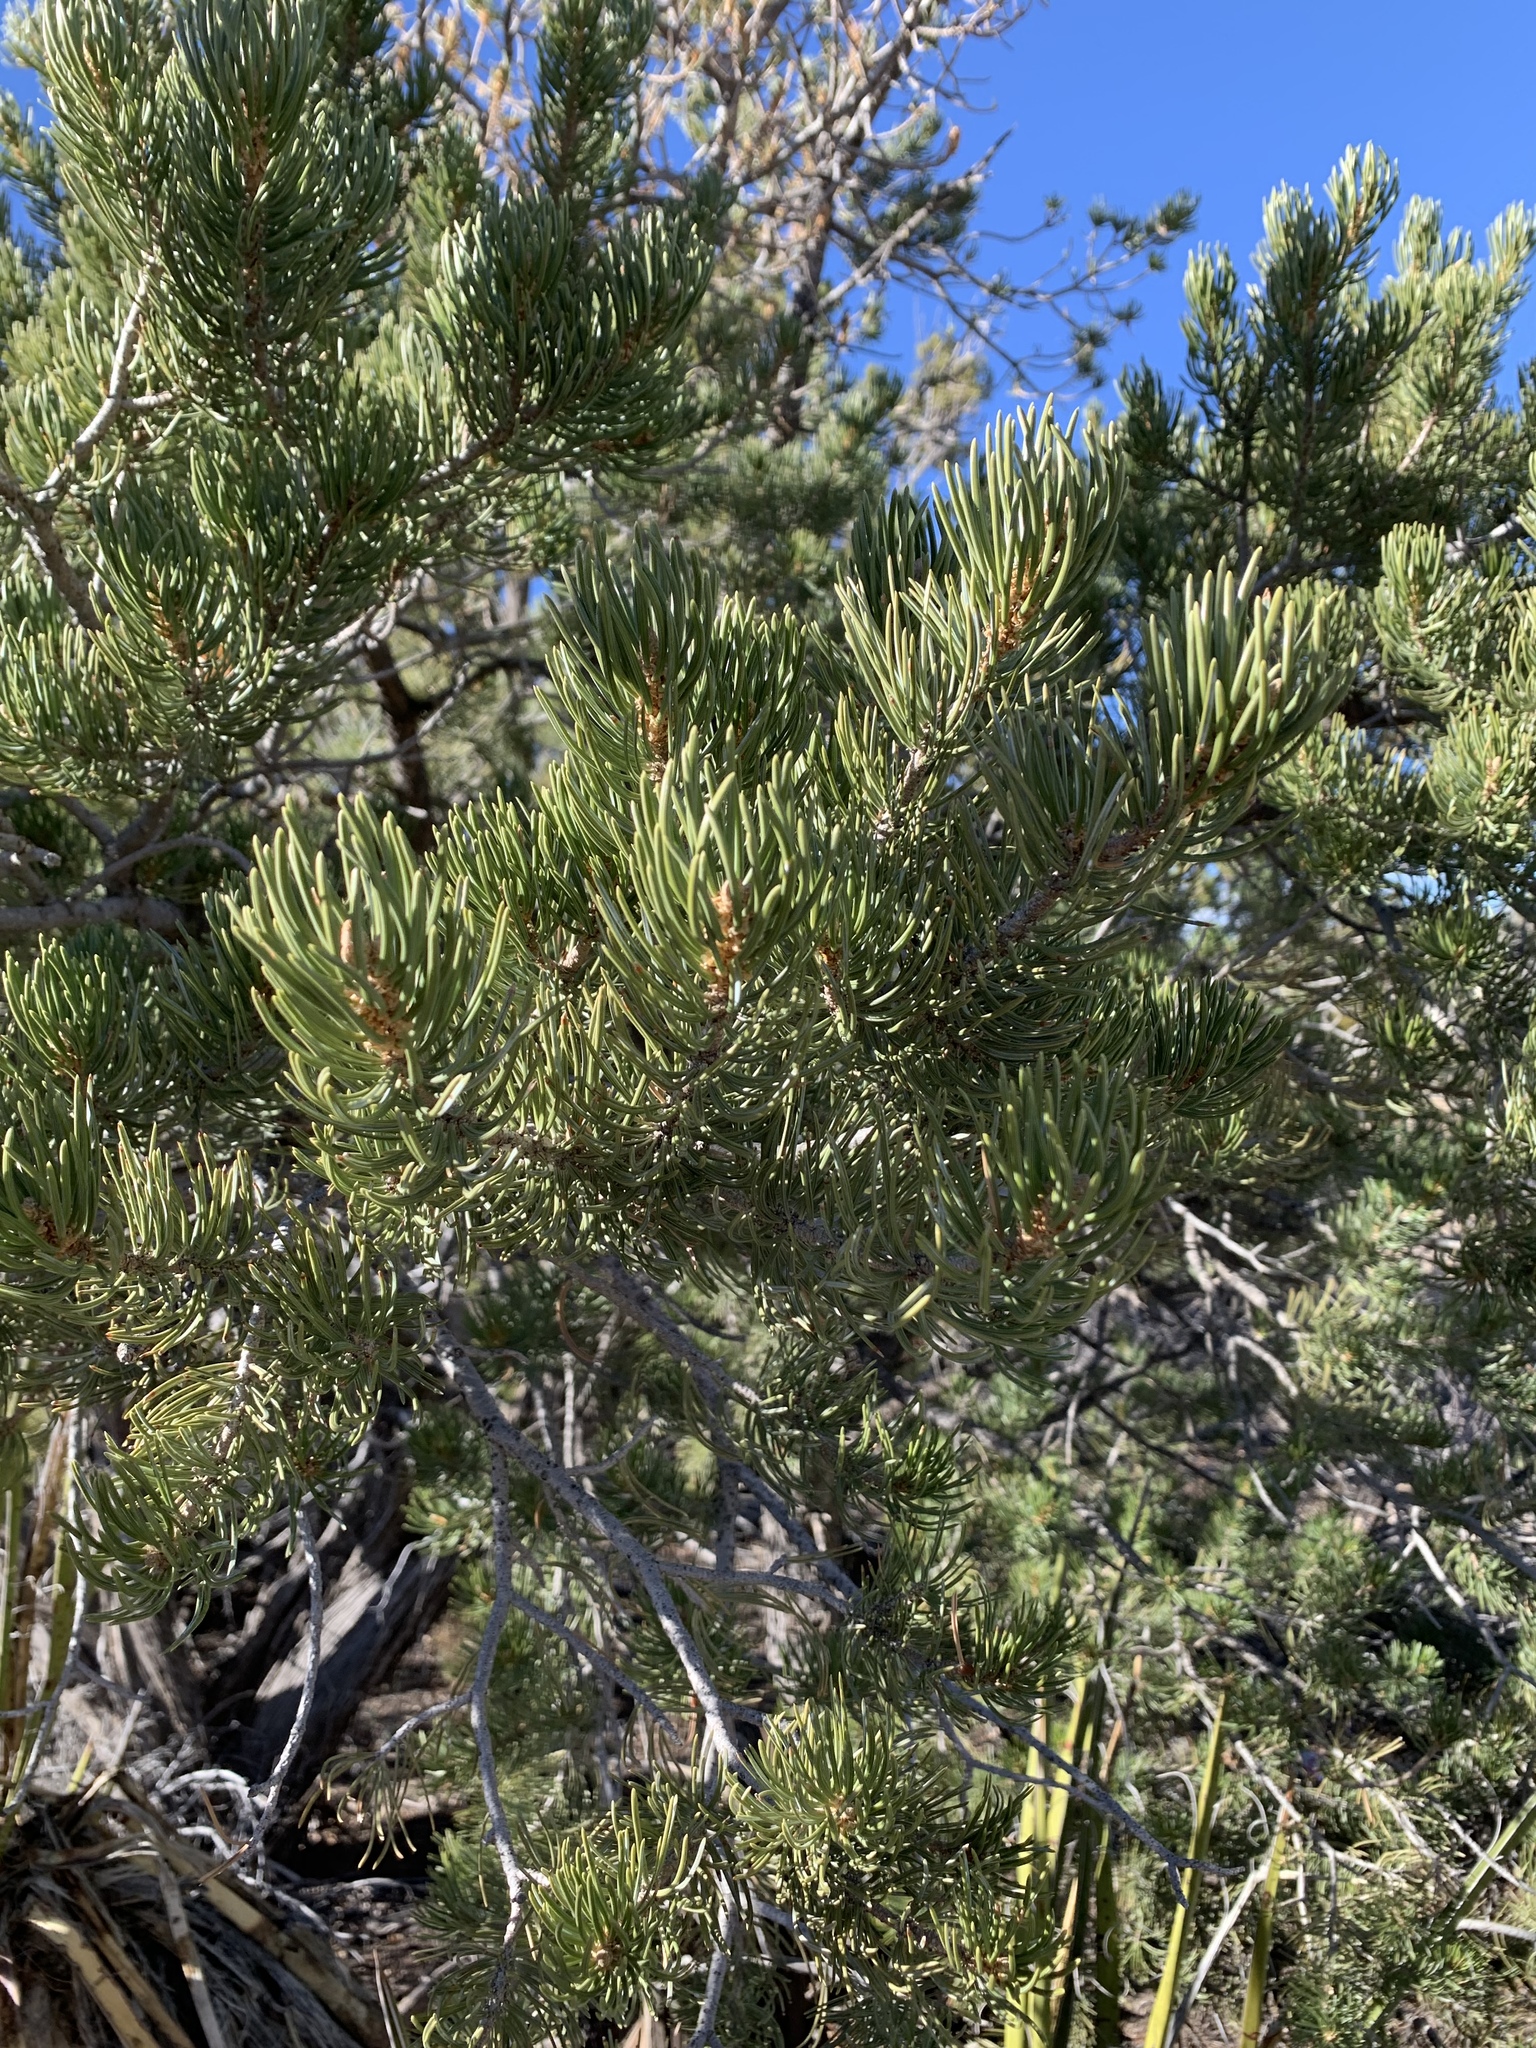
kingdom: Plantae
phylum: Tracheophyta
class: Pinopsida
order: Pinales
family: Pinaceae
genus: Pinus
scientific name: Pinus edulis
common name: Colorado pinyon
